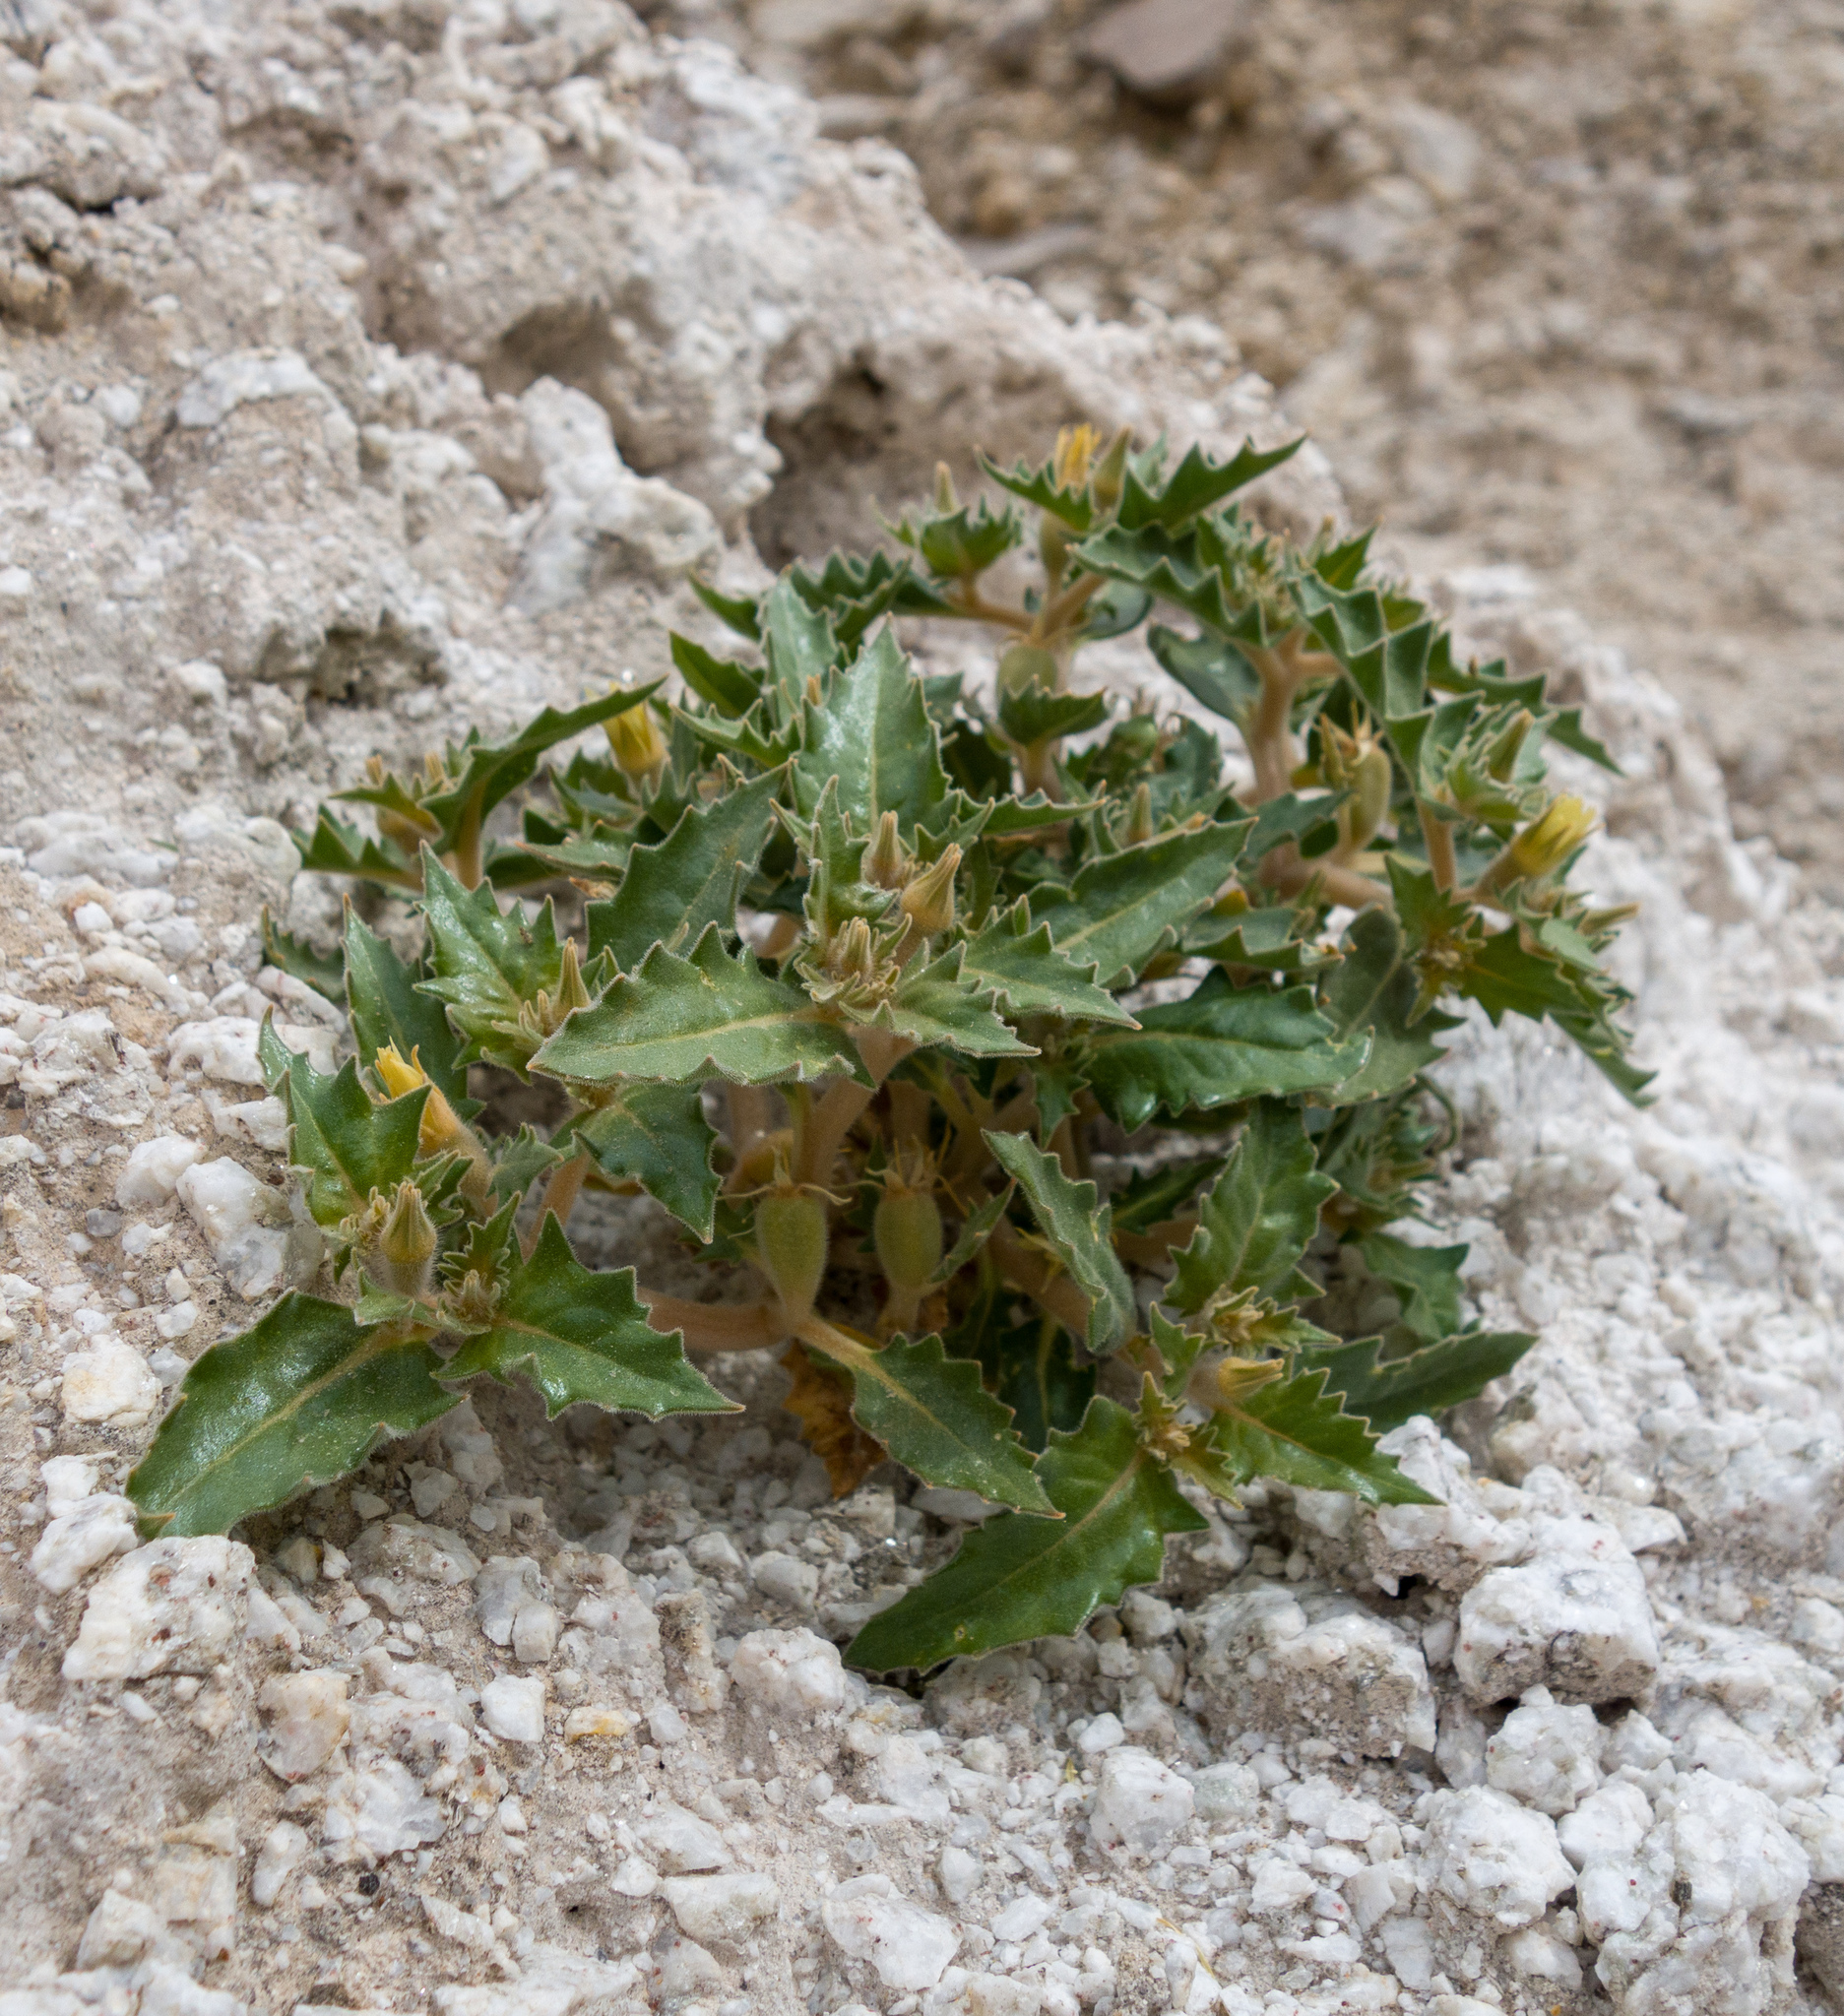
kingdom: Plantae
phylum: Tracheophyta
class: Magnoliopsida
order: Cornales
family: Loasaceae
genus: Mentzelia
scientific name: Mentzelia reflexa
